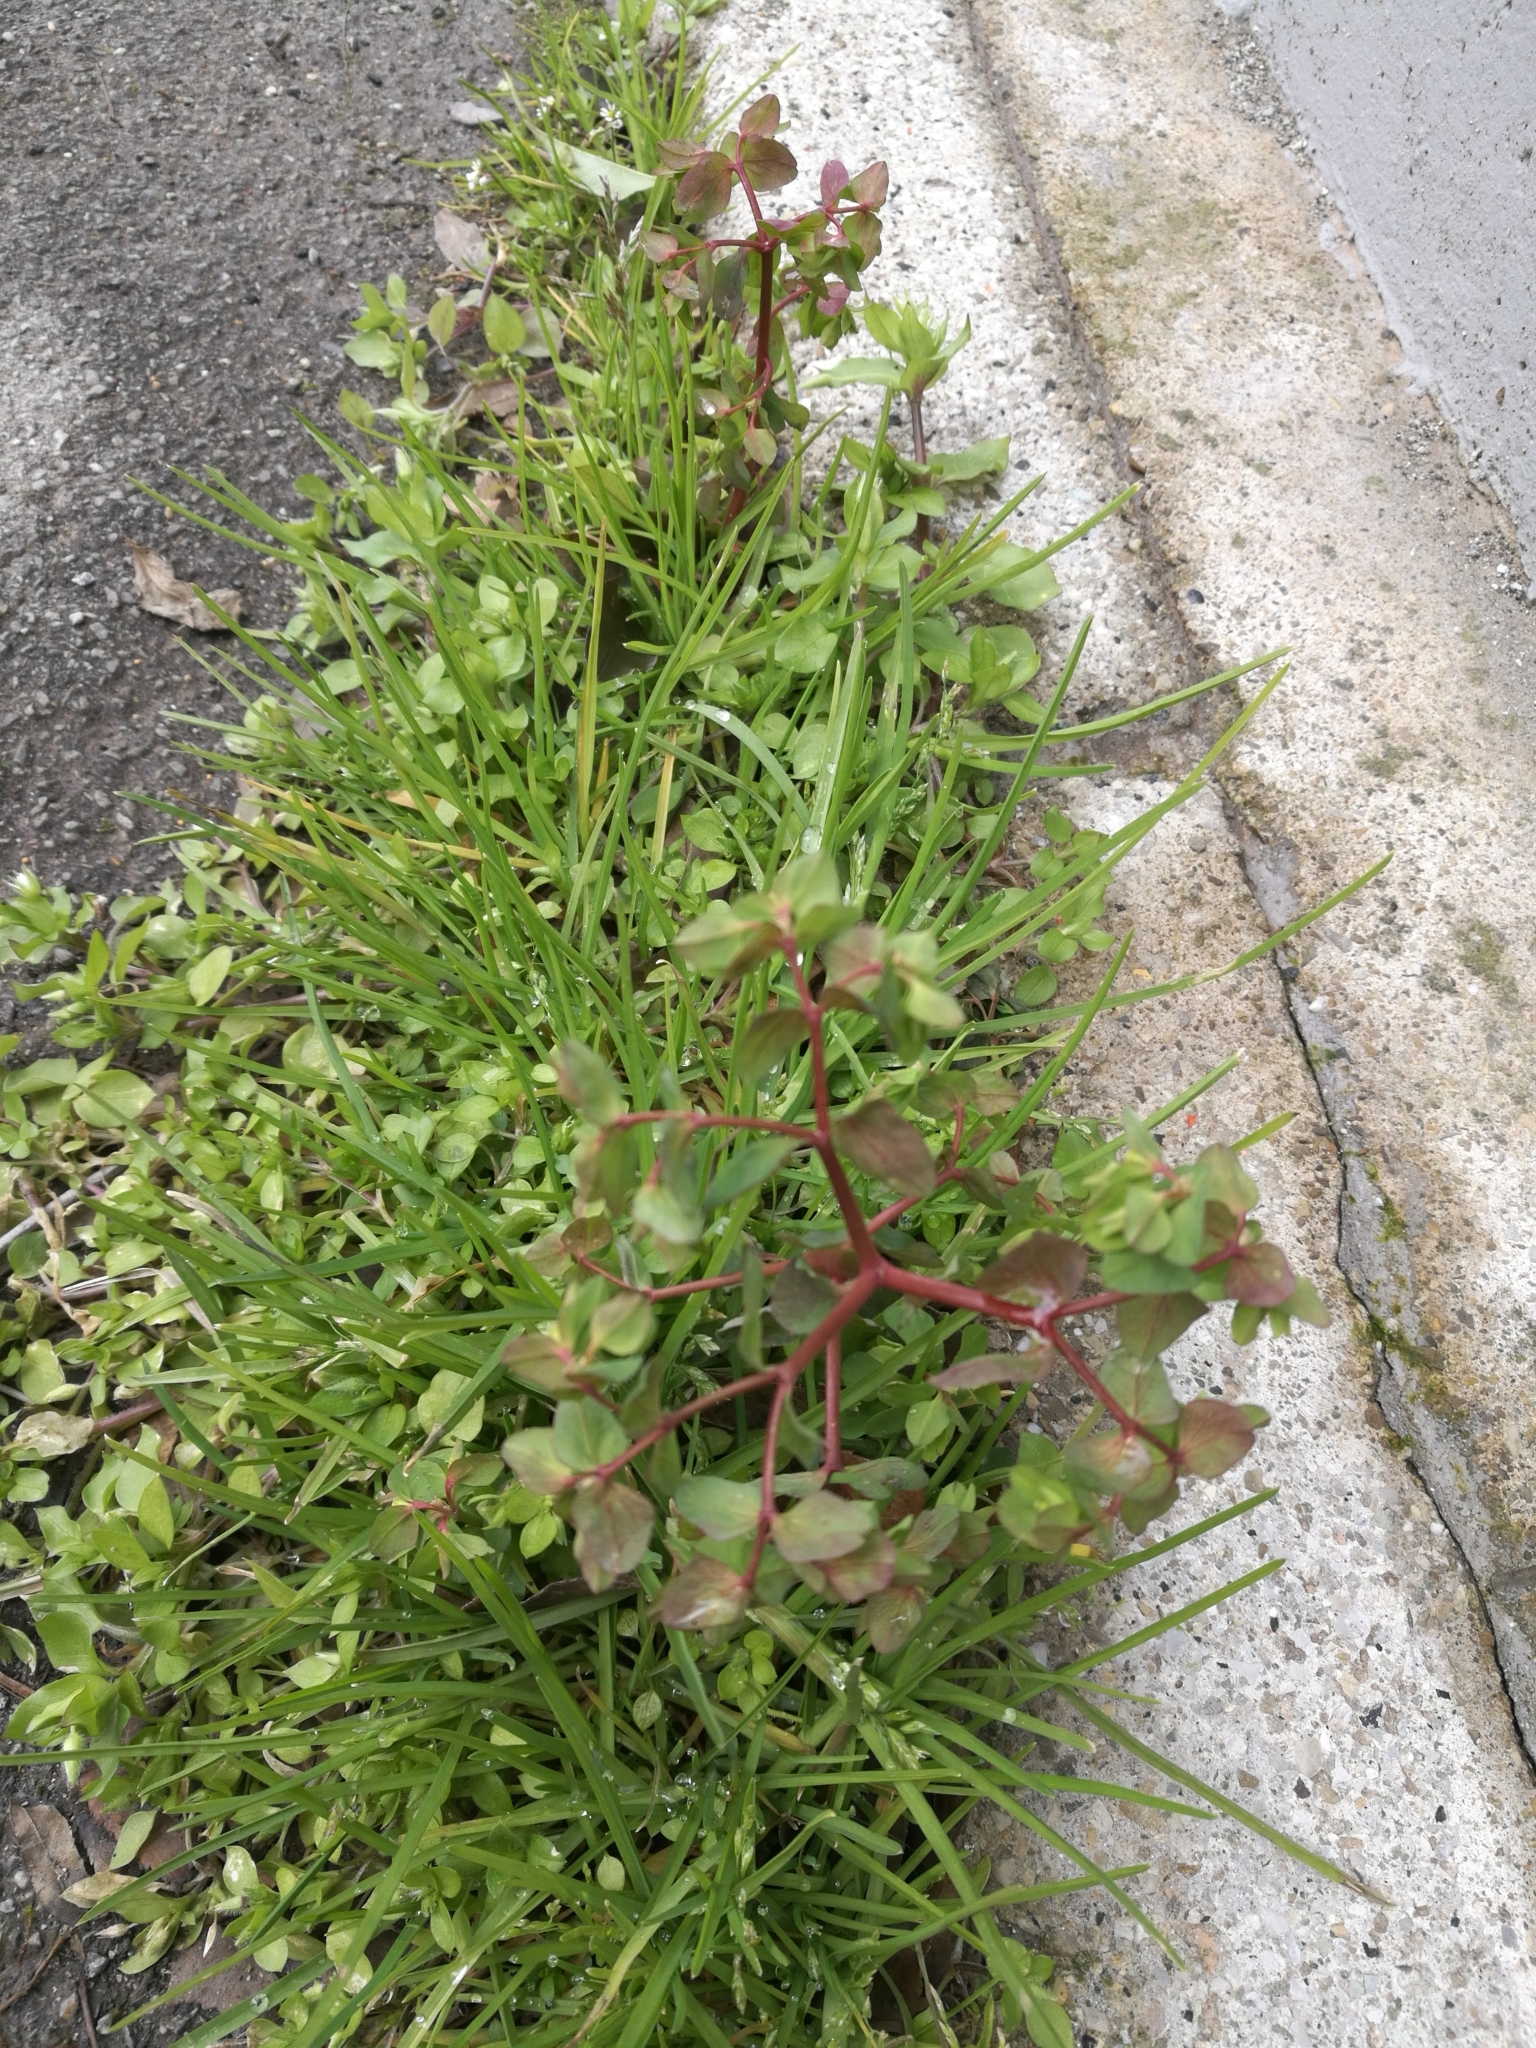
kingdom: Plantae
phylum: Tracheophyta
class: Magnoliopsida
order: Malpighiales
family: Euphorbiaceae
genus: Euphorbia
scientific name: Euphorbia peplus
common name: Petty spurge
